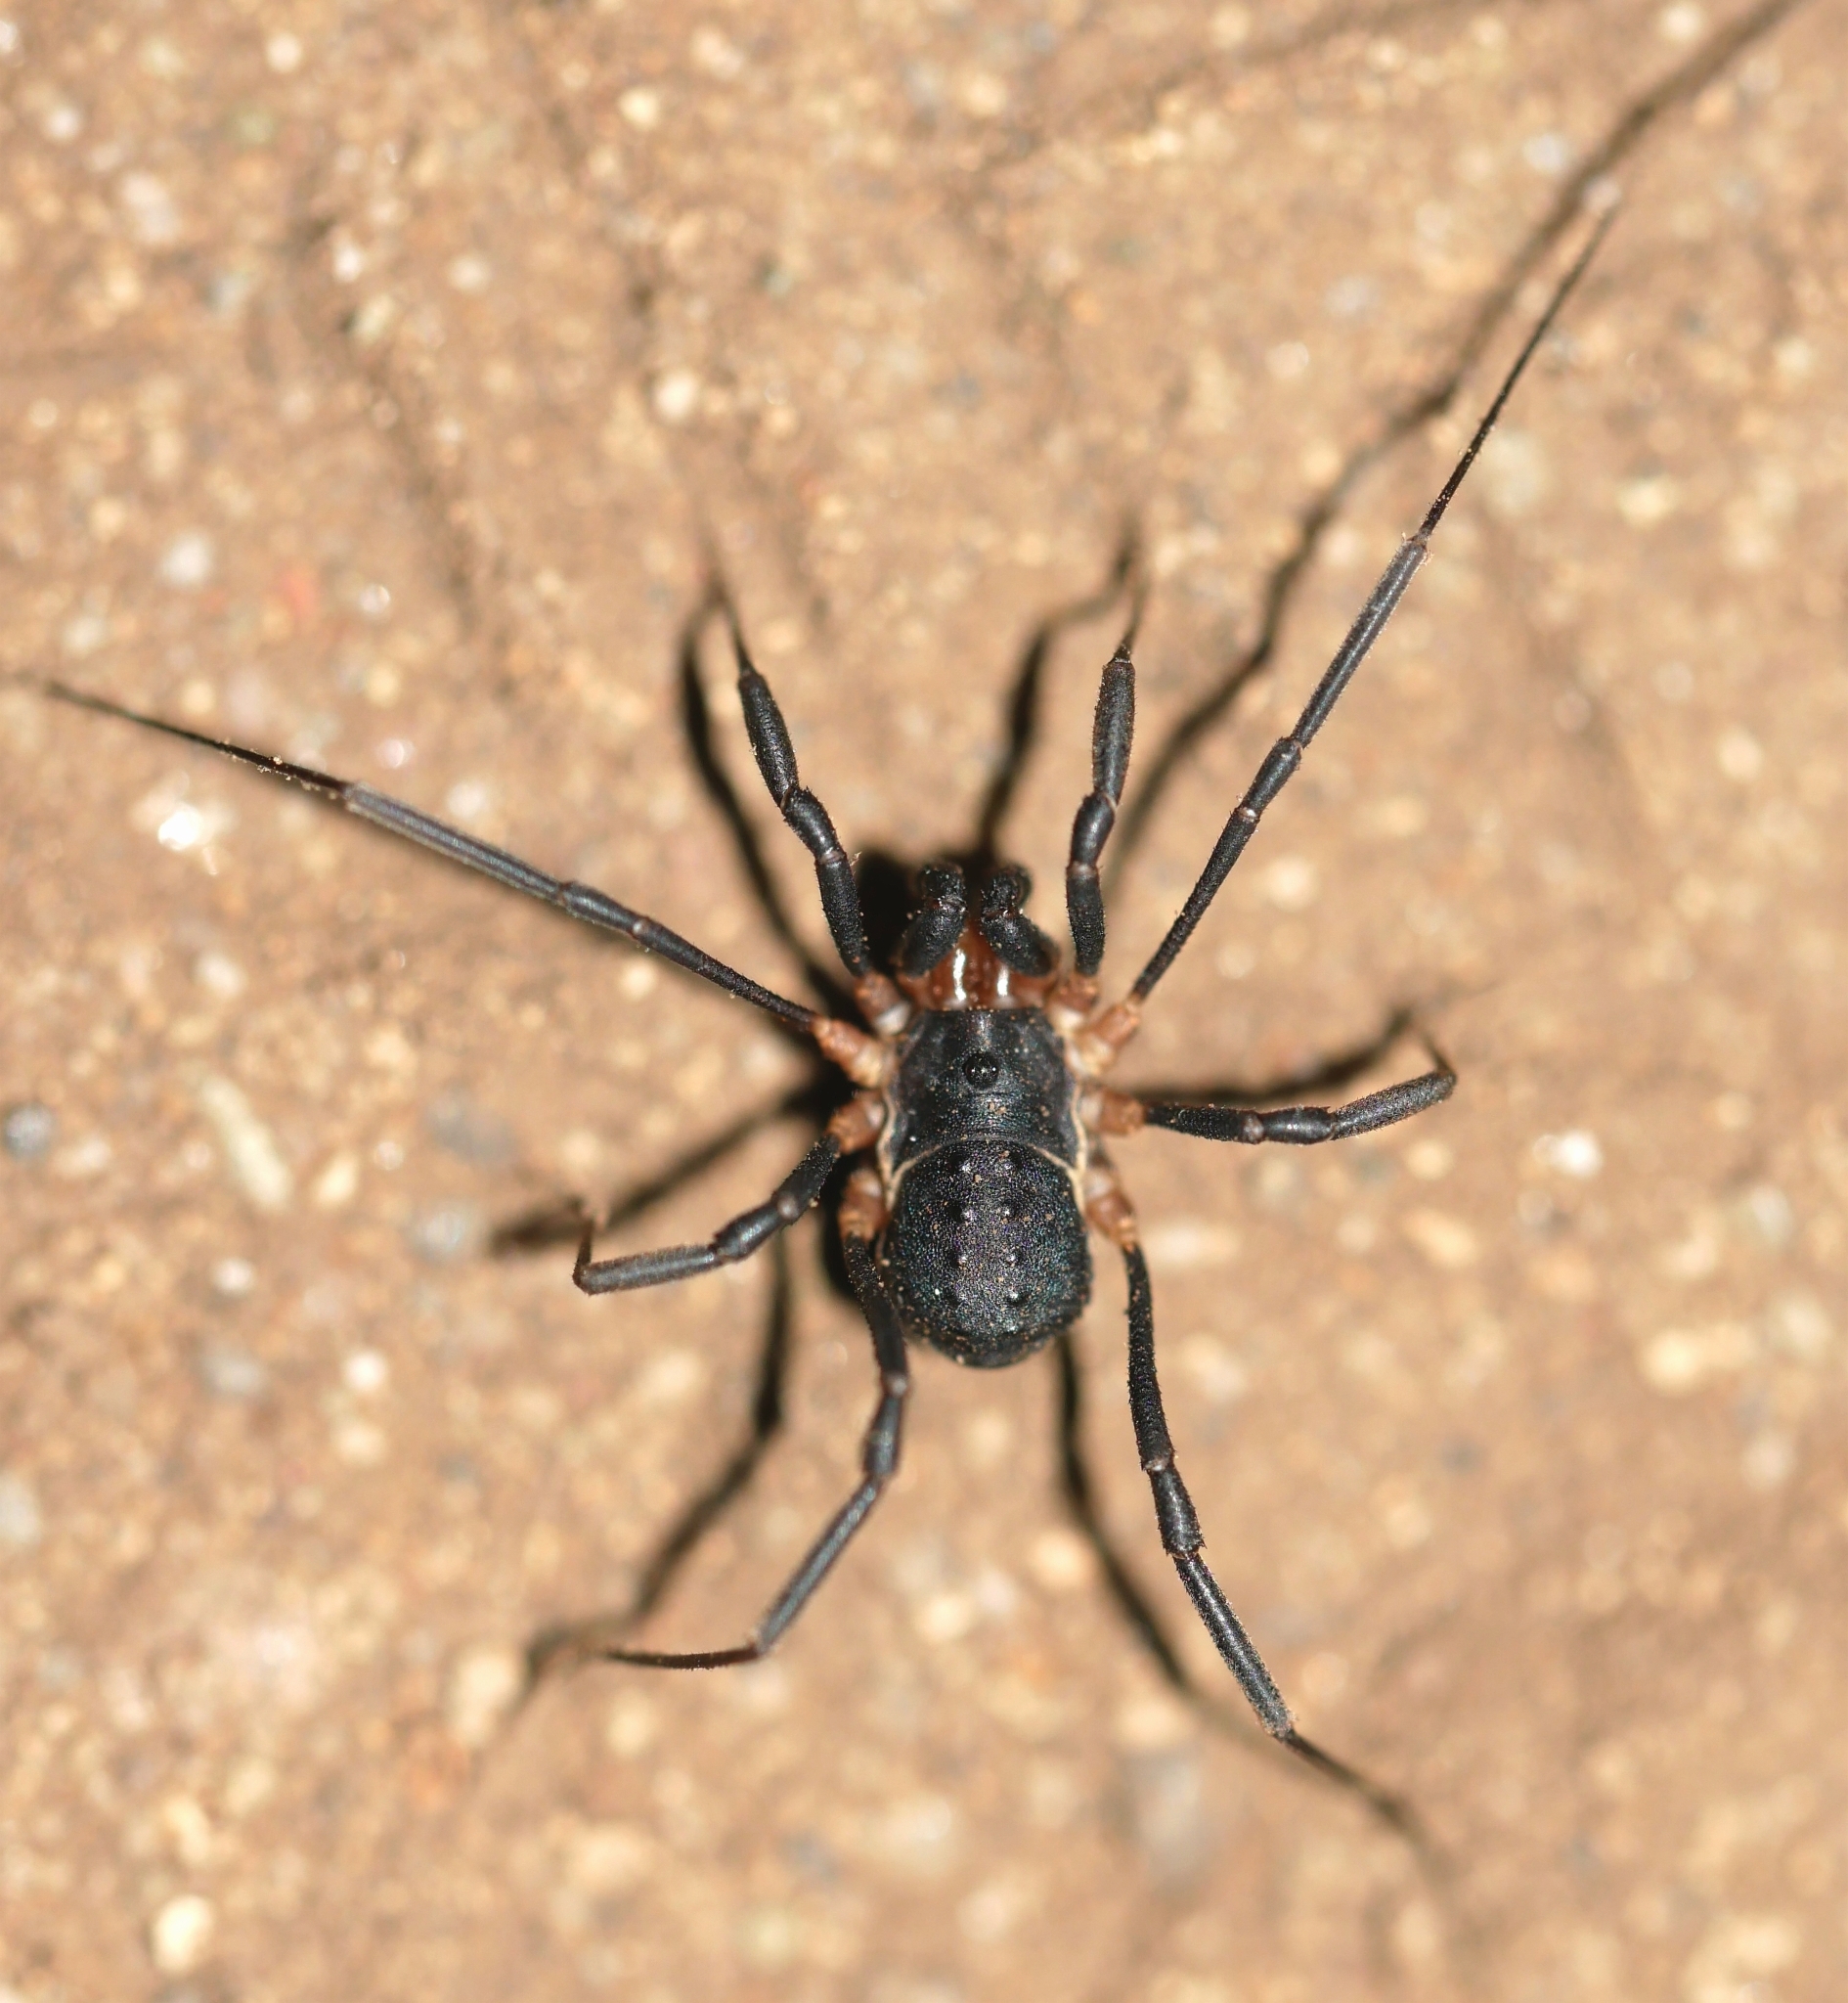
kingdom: Animalia
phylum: Arthropoda
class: Arachnida
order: Opiliones
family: Protolophidae
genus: Protolophus
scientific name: Protolophus tuberculatus
